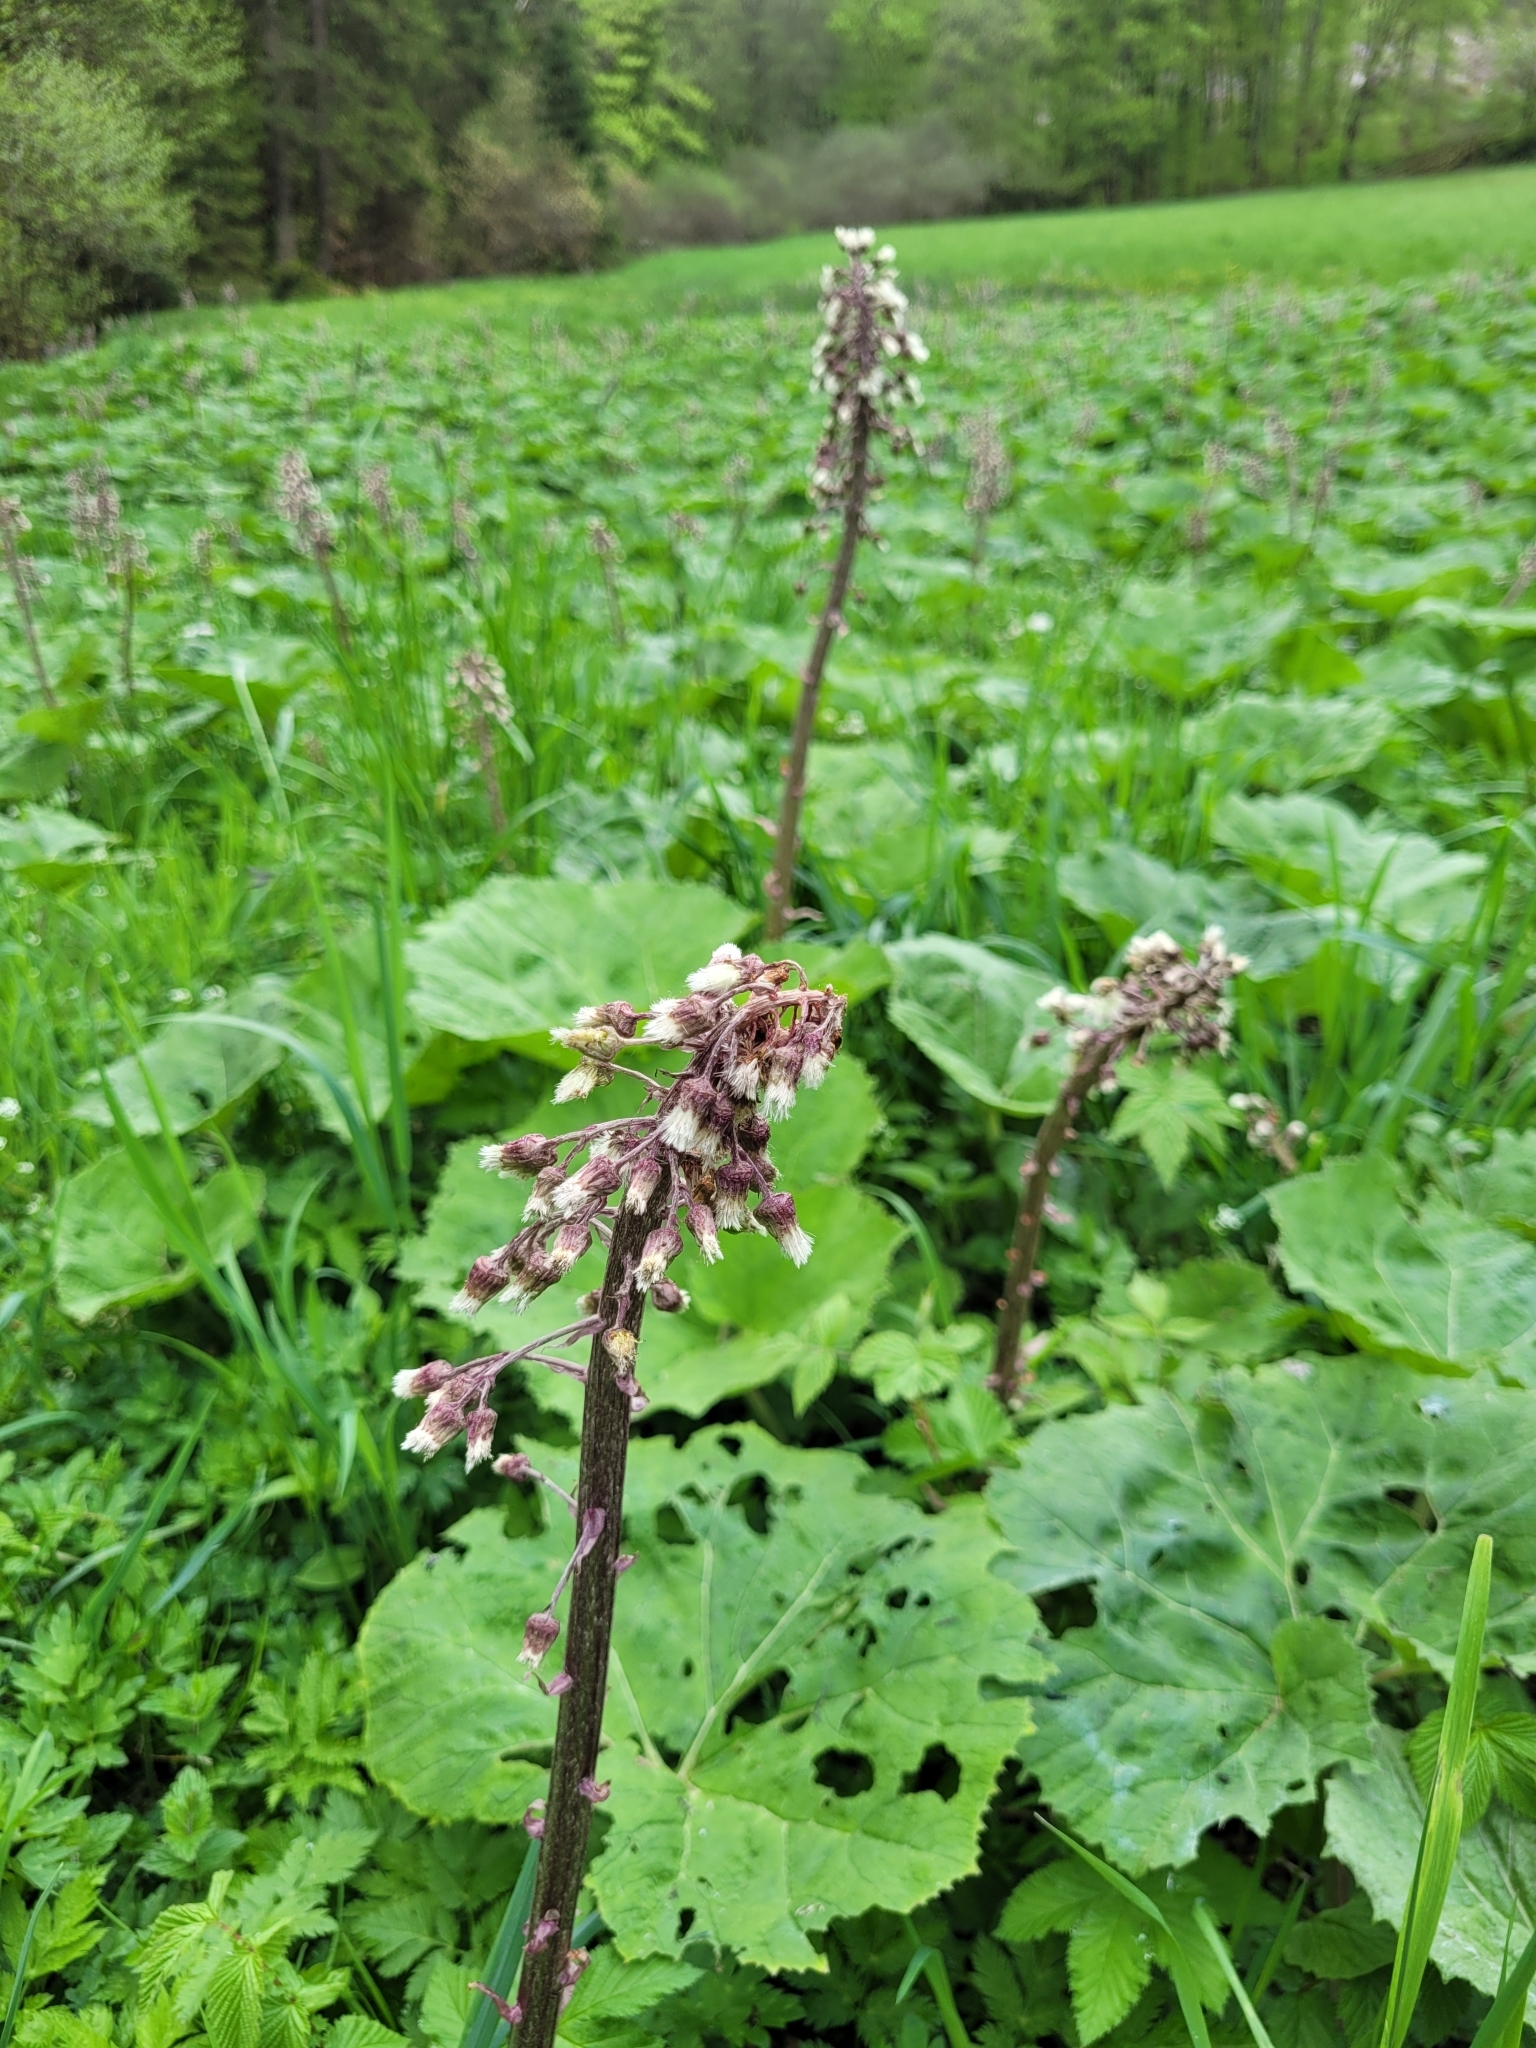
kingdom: Plantae
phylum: Tracheophyta
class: Magnoliopsida
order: Asterales
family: Asteraceae
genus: Petasites
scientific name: Petasites hybridus
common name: Butterbur
